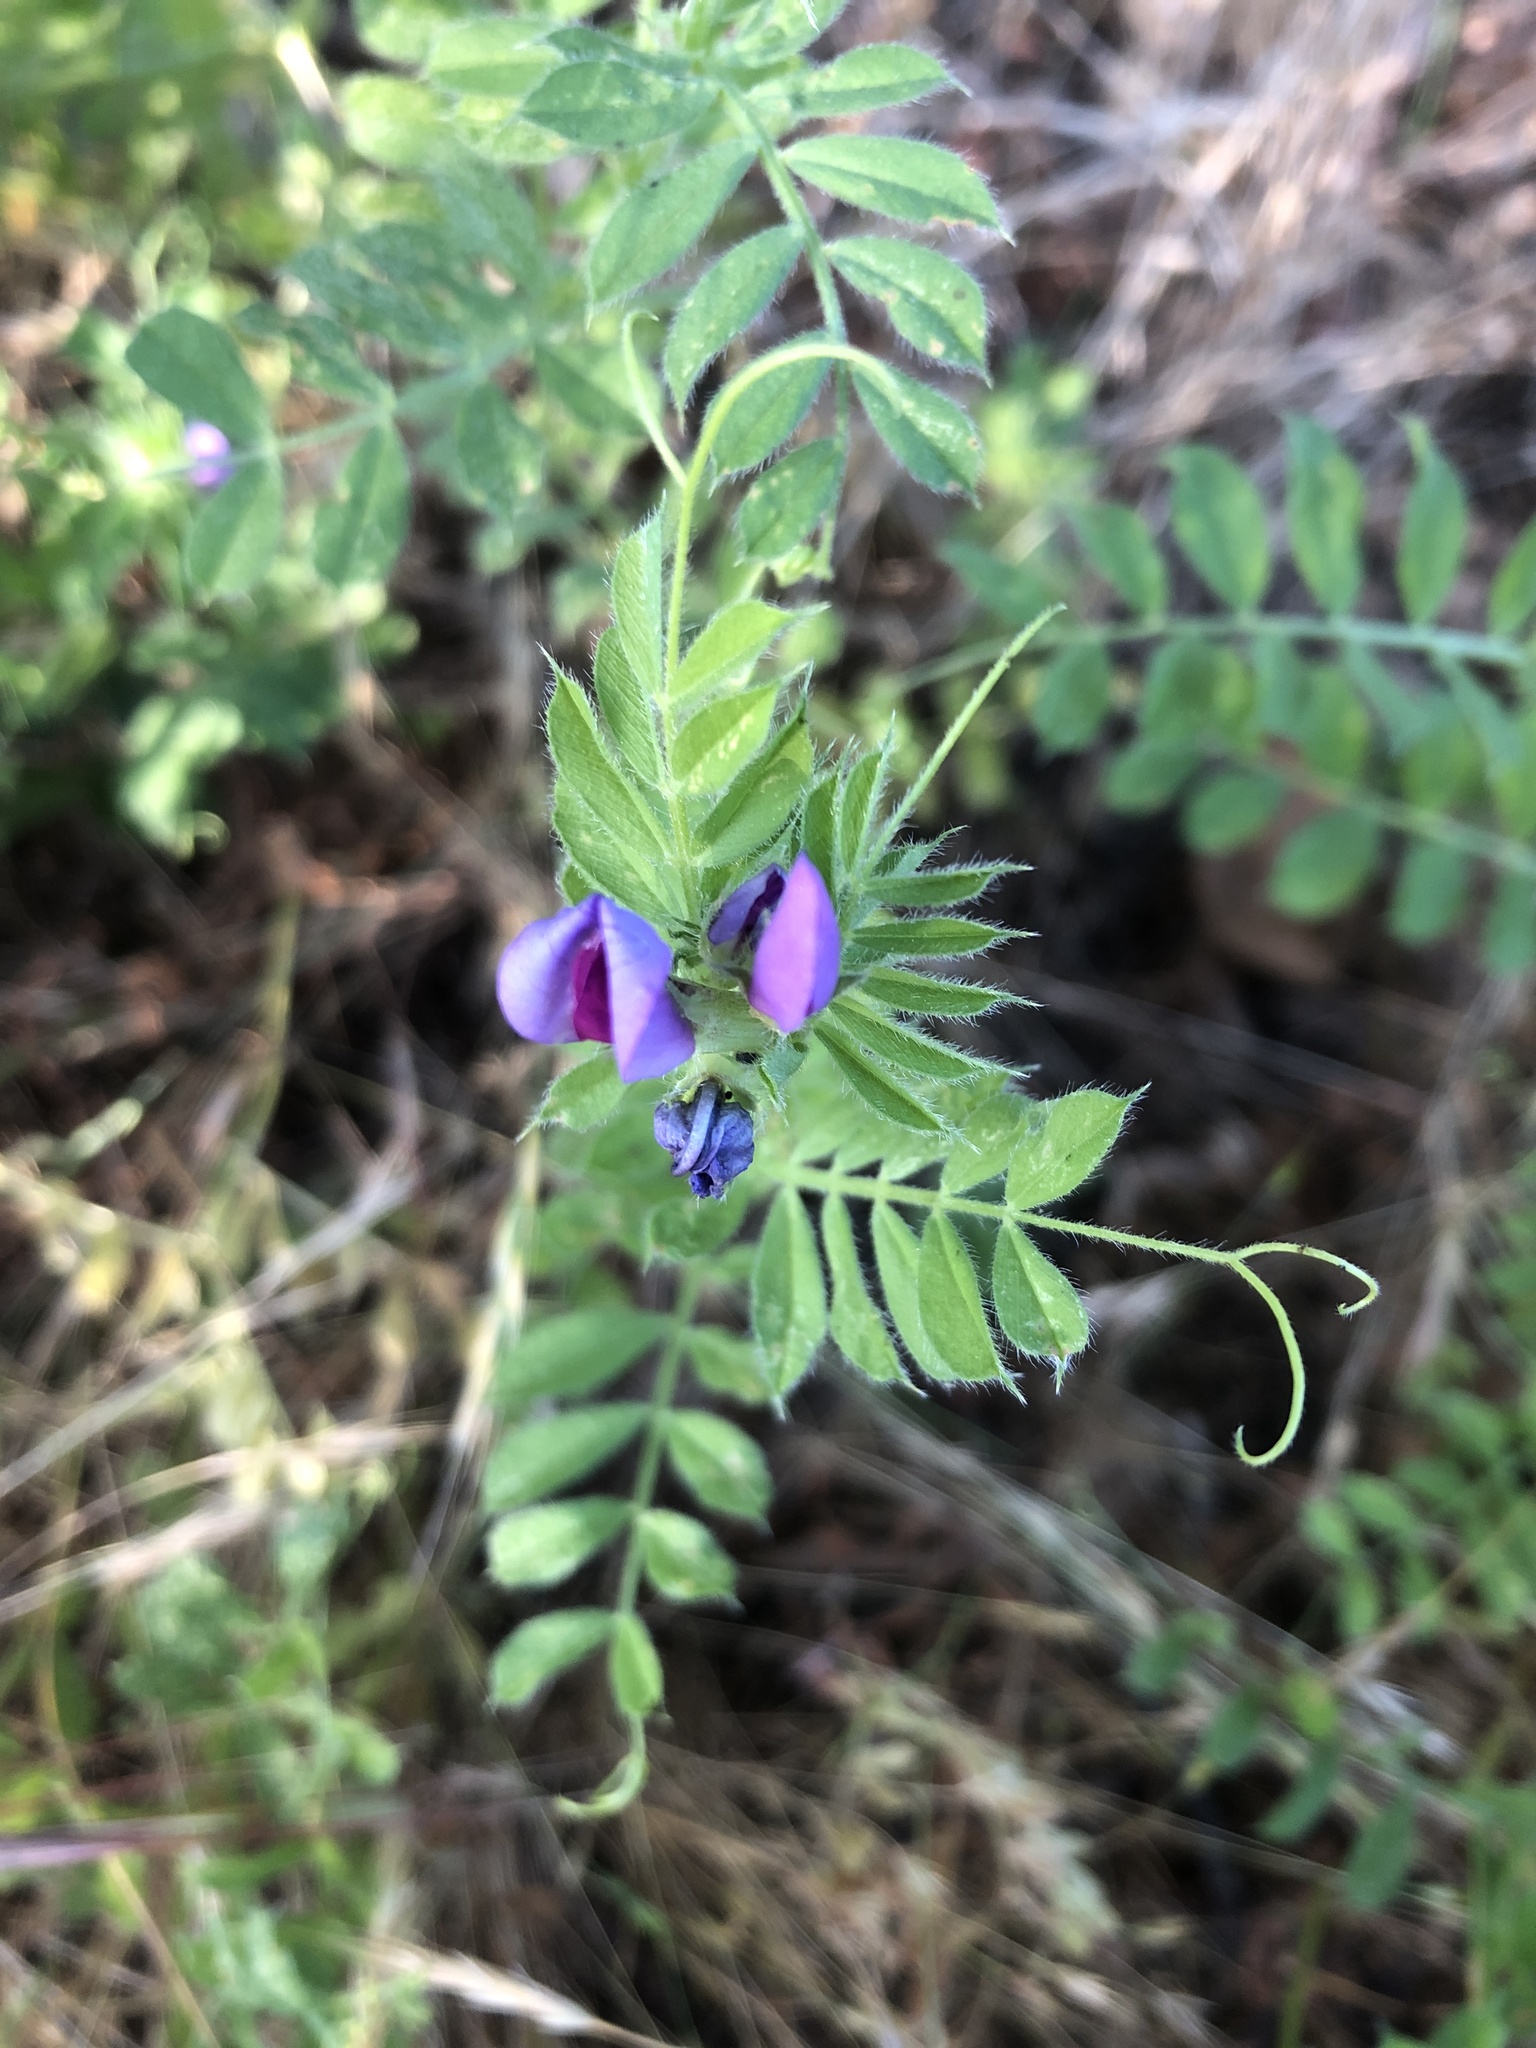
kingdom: Plantae
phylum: Tracheophyta
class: Magnoliopsida
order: Fabales
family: Fabaceae
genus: Vicia
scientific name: Vicia sativa
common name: Garden vetch
